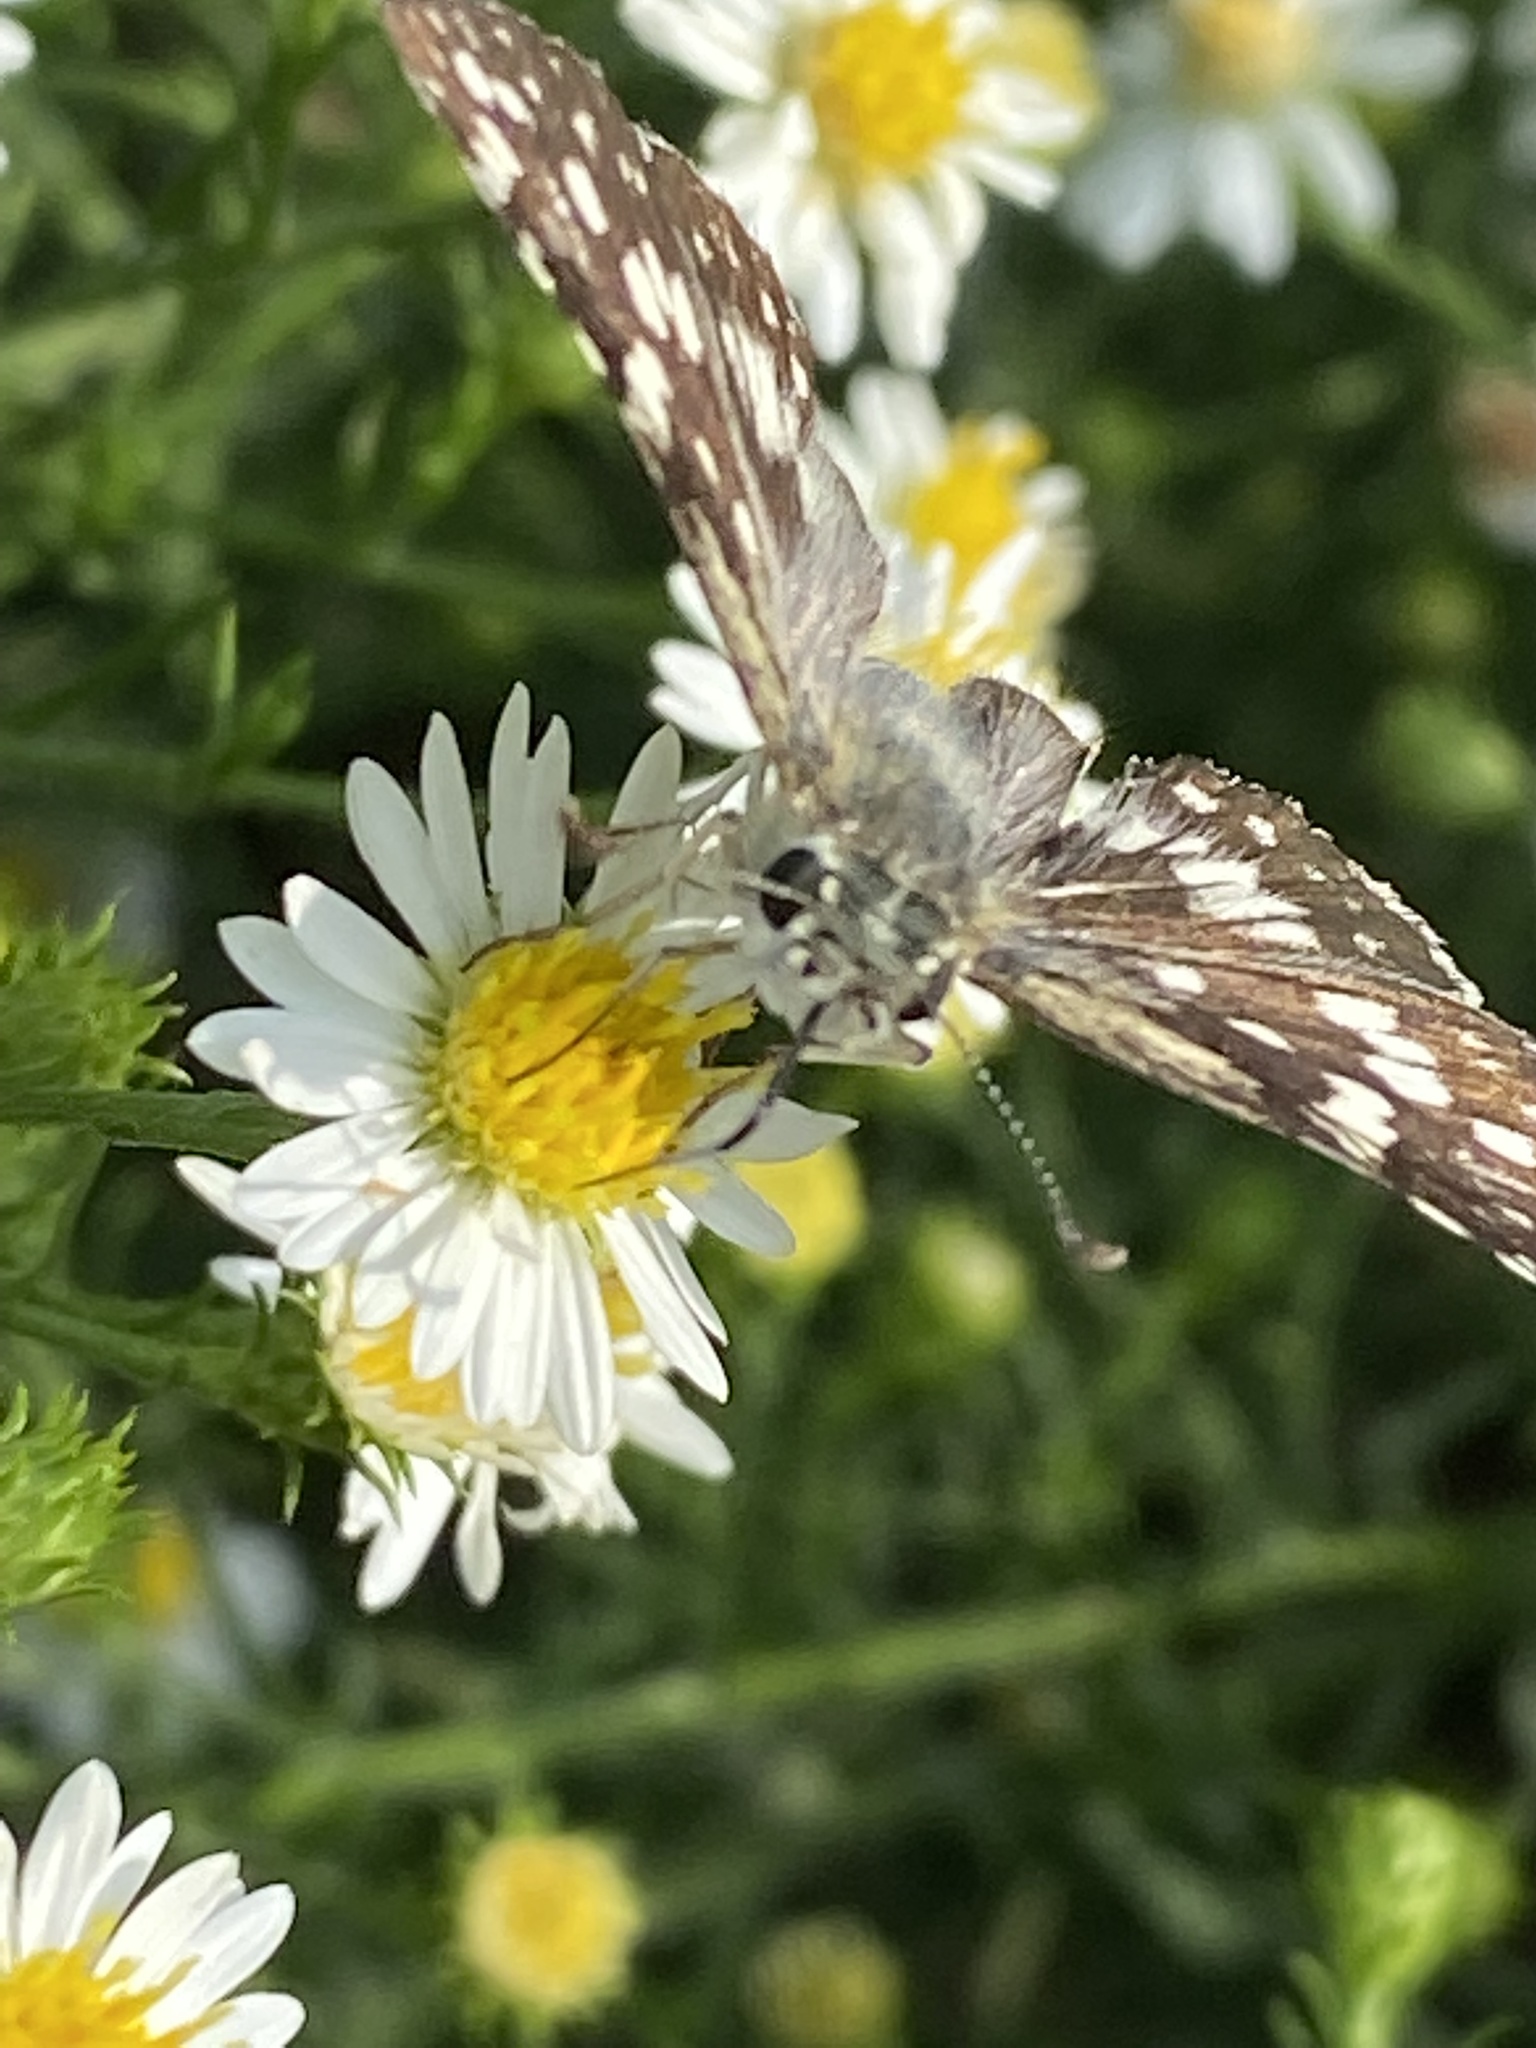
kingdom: Animalia
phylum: Arthropoda
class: Insecta
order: Lepidoptera
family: Hesperiidae
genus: Burnsius
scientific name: Burnsius communis
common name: Common checkered-skipper
